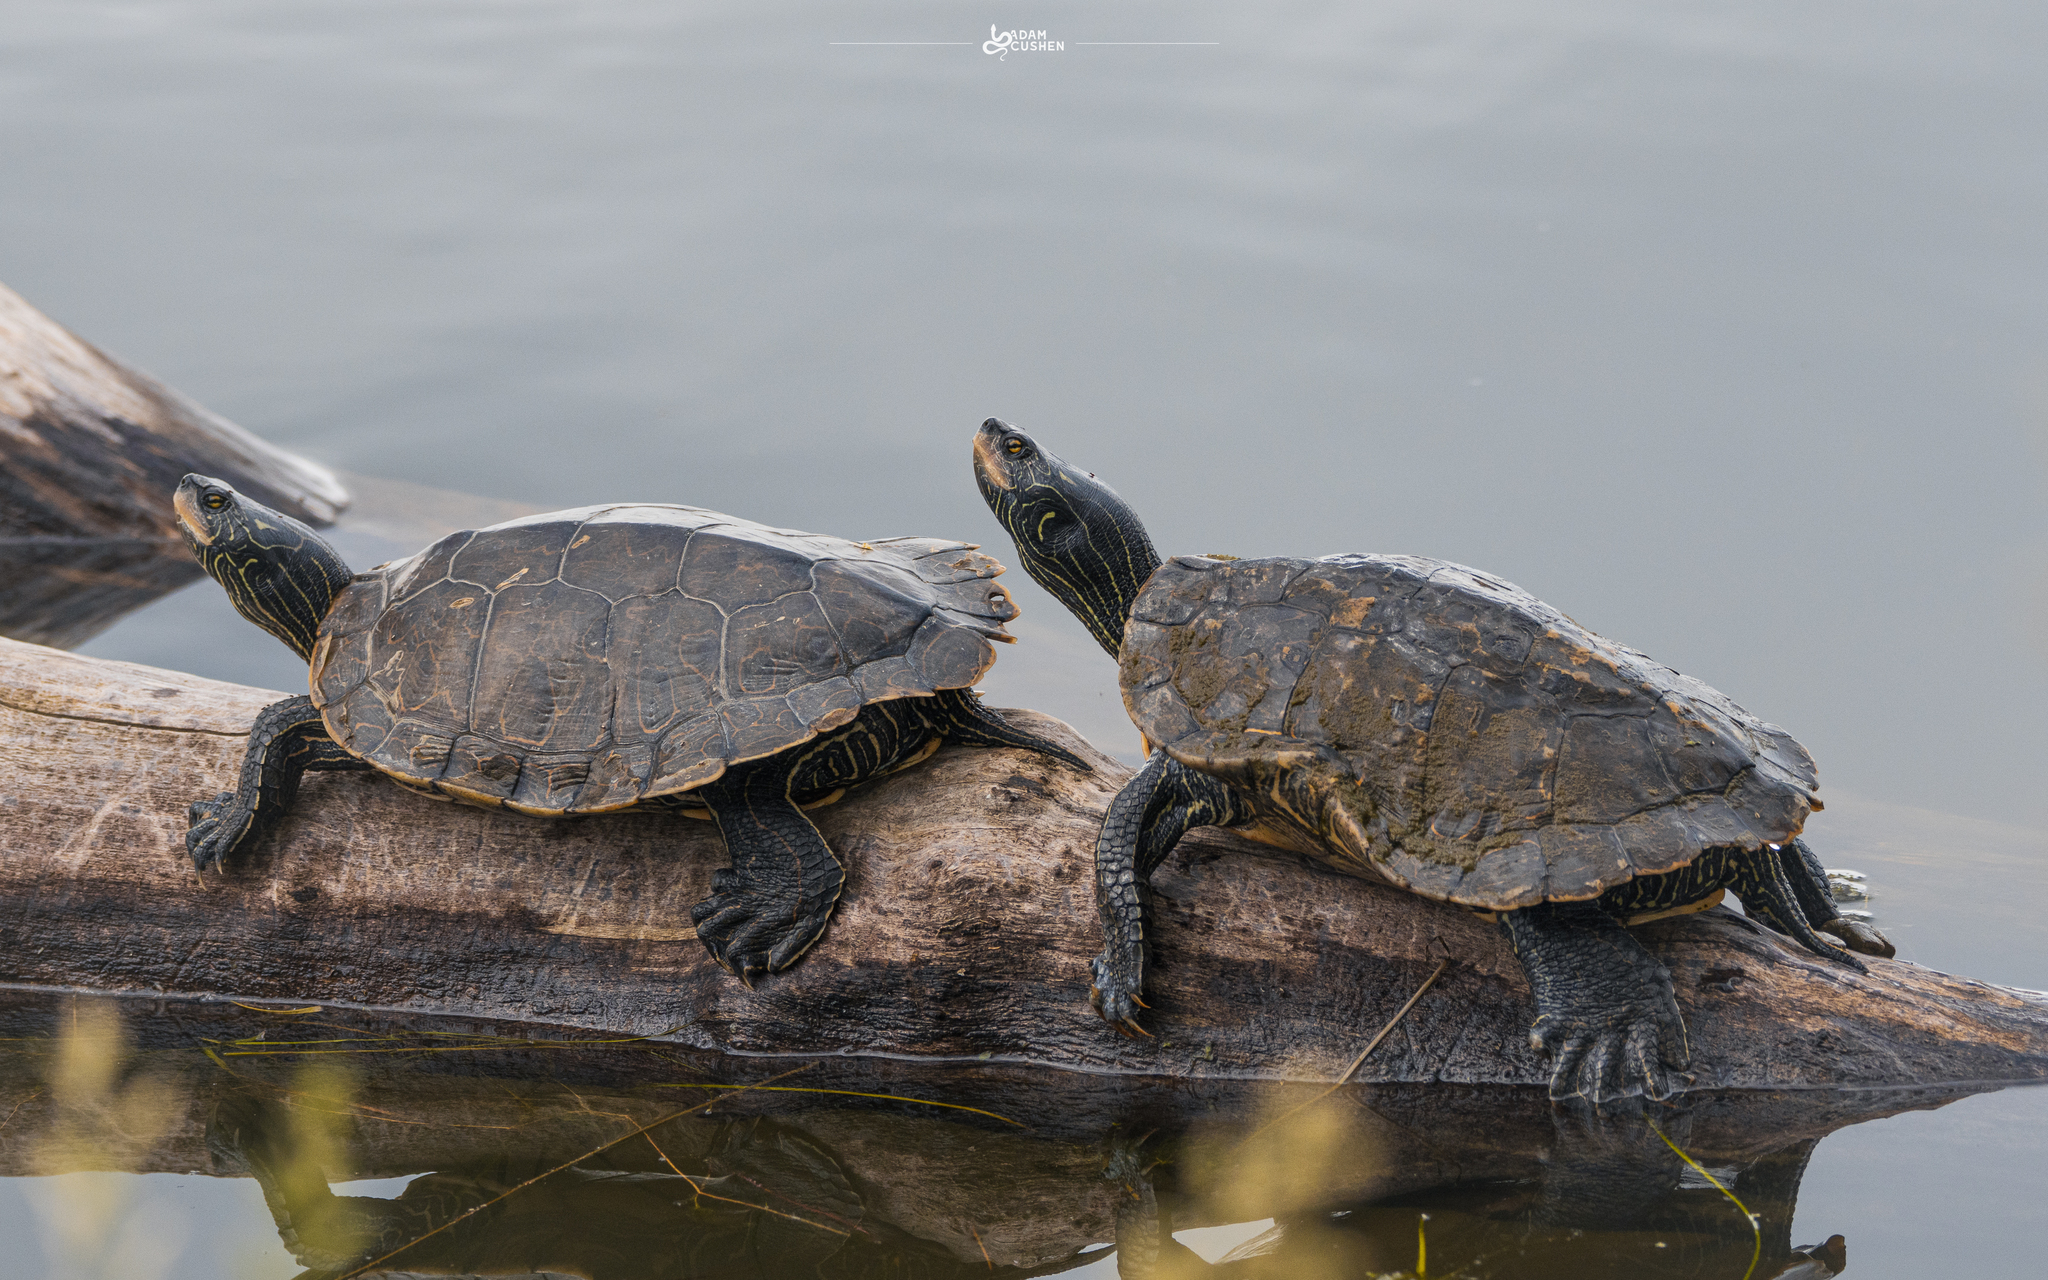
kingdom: Animalia
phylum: Chordata
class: Testudines
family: Emydidae
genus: Graptemys
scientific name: Graptemys geographica
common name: Common map turtle
